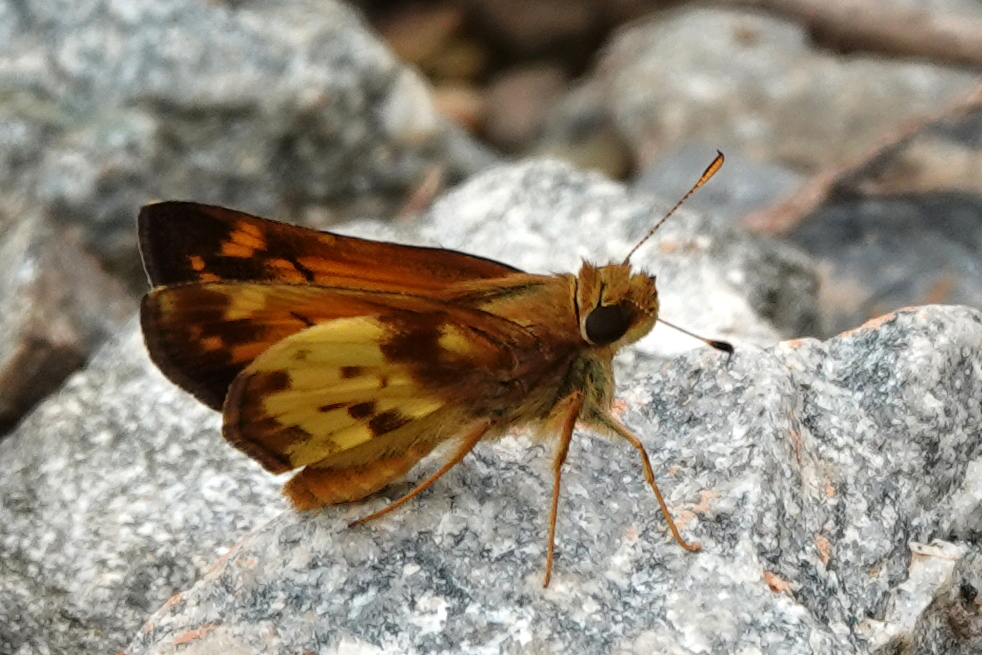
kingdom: Animalia
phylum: Arthropoda
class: Insecta
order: Lepidoptera
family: Hesperiidae
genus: Lon
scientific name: Lon zabulon
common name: Zabulon skipper
